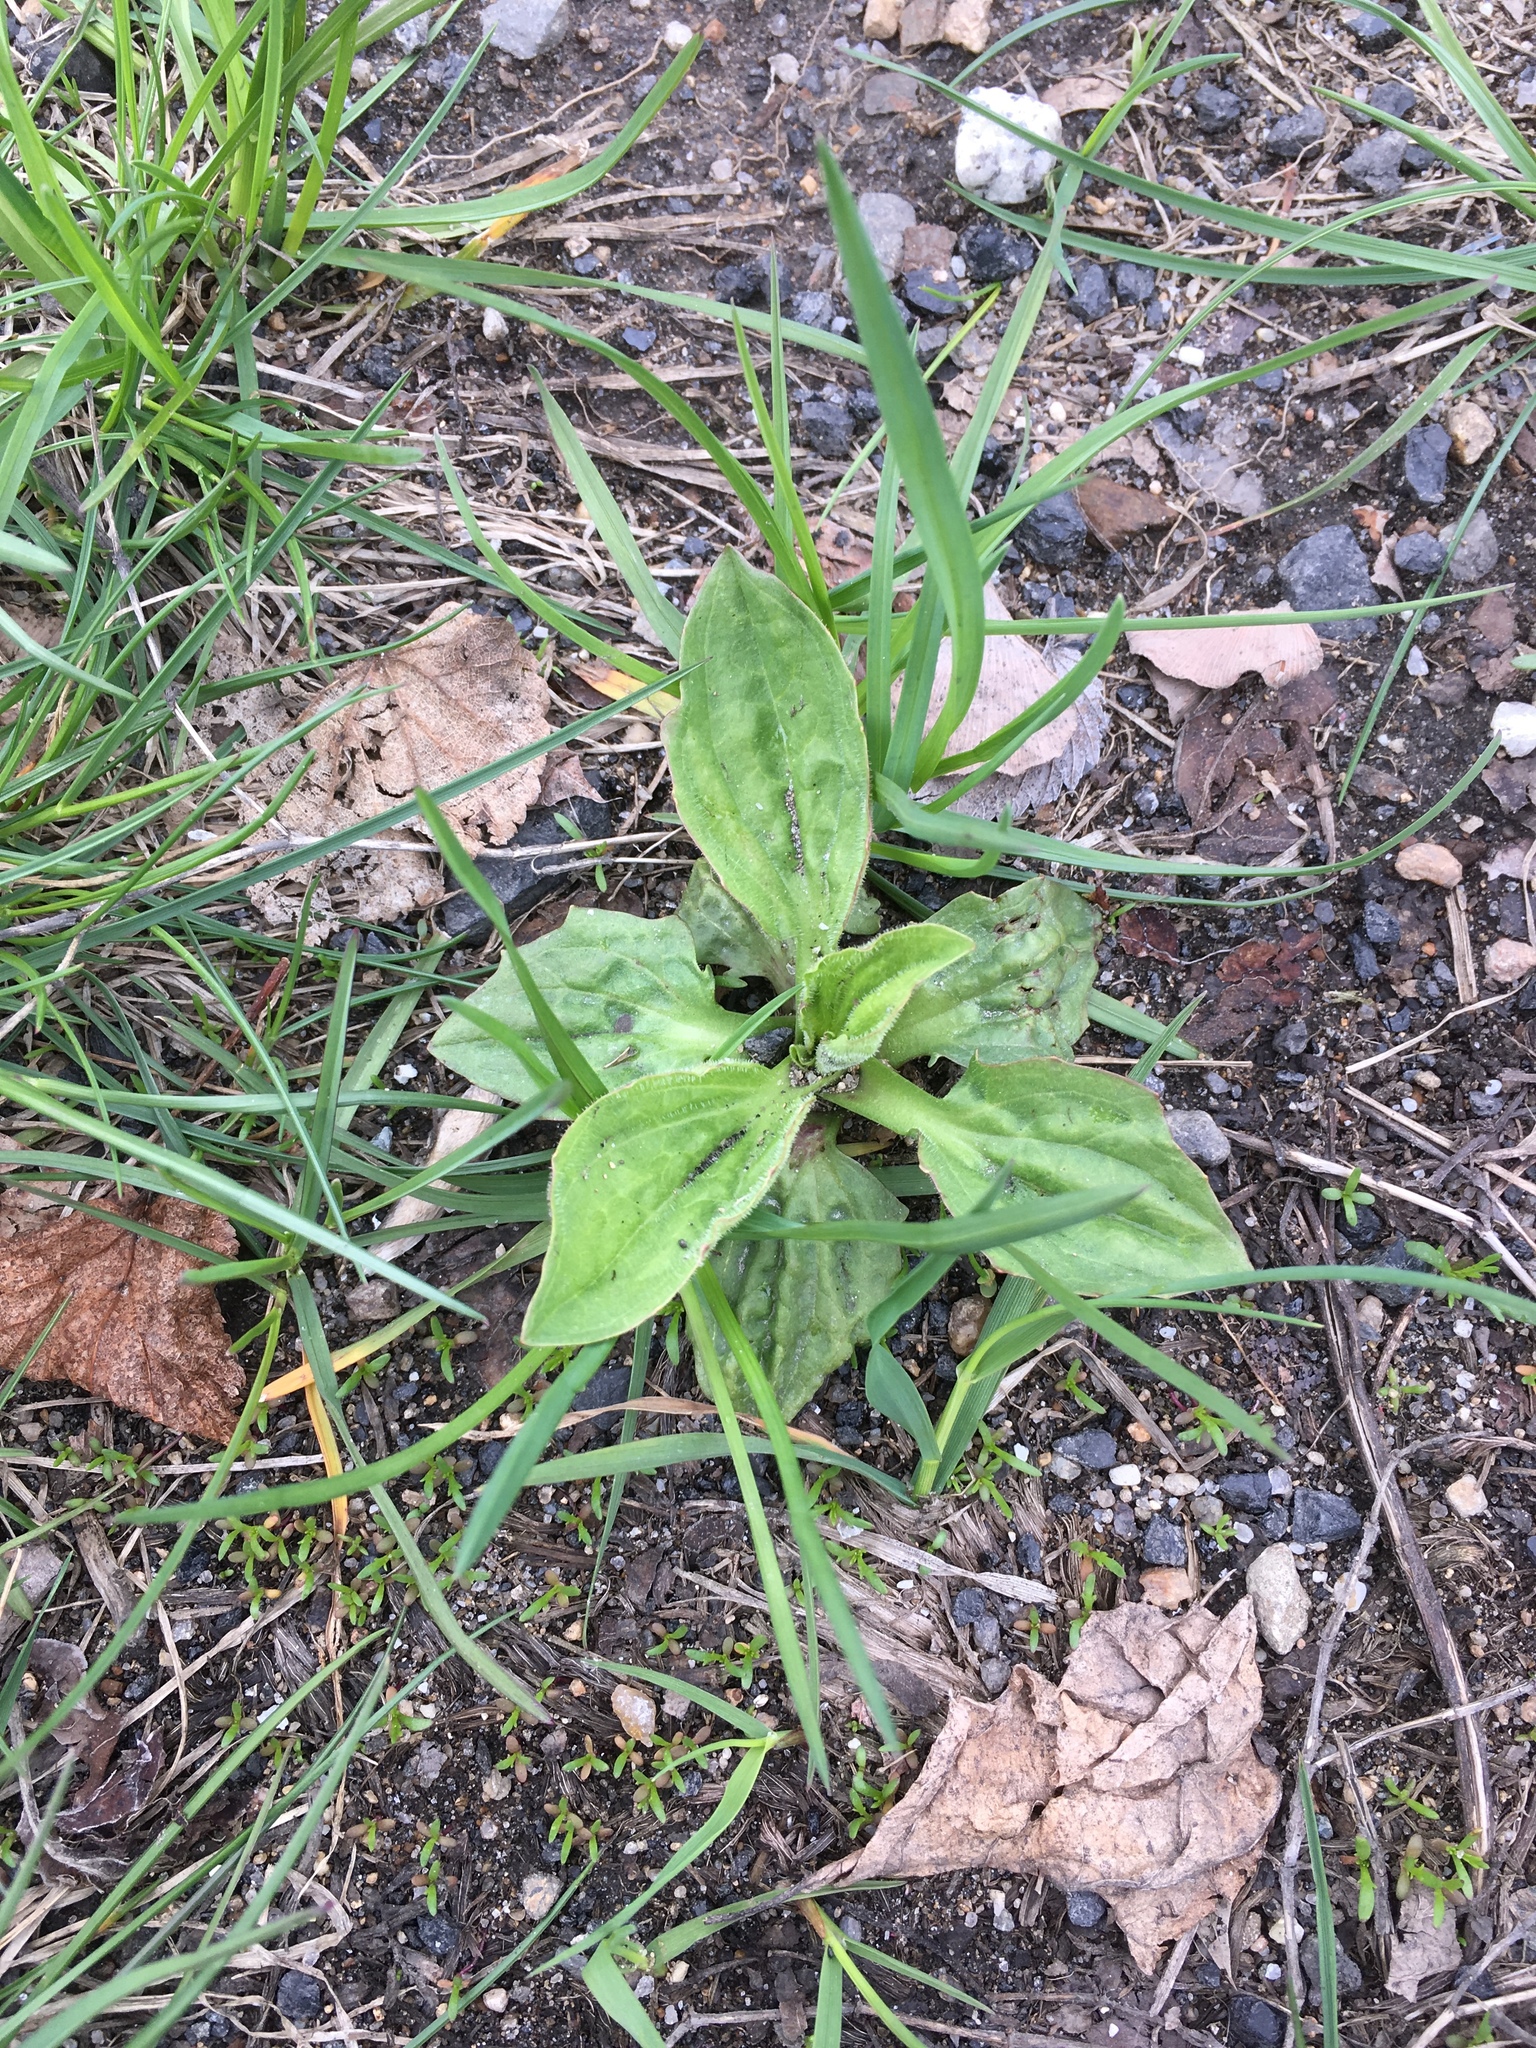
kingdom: Plantae
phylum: Tracheophyta
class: Magnoliopsida
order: Lamiales
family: Plantaginaceae
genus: Plantago
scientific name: Plantago major
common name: Common plantain
